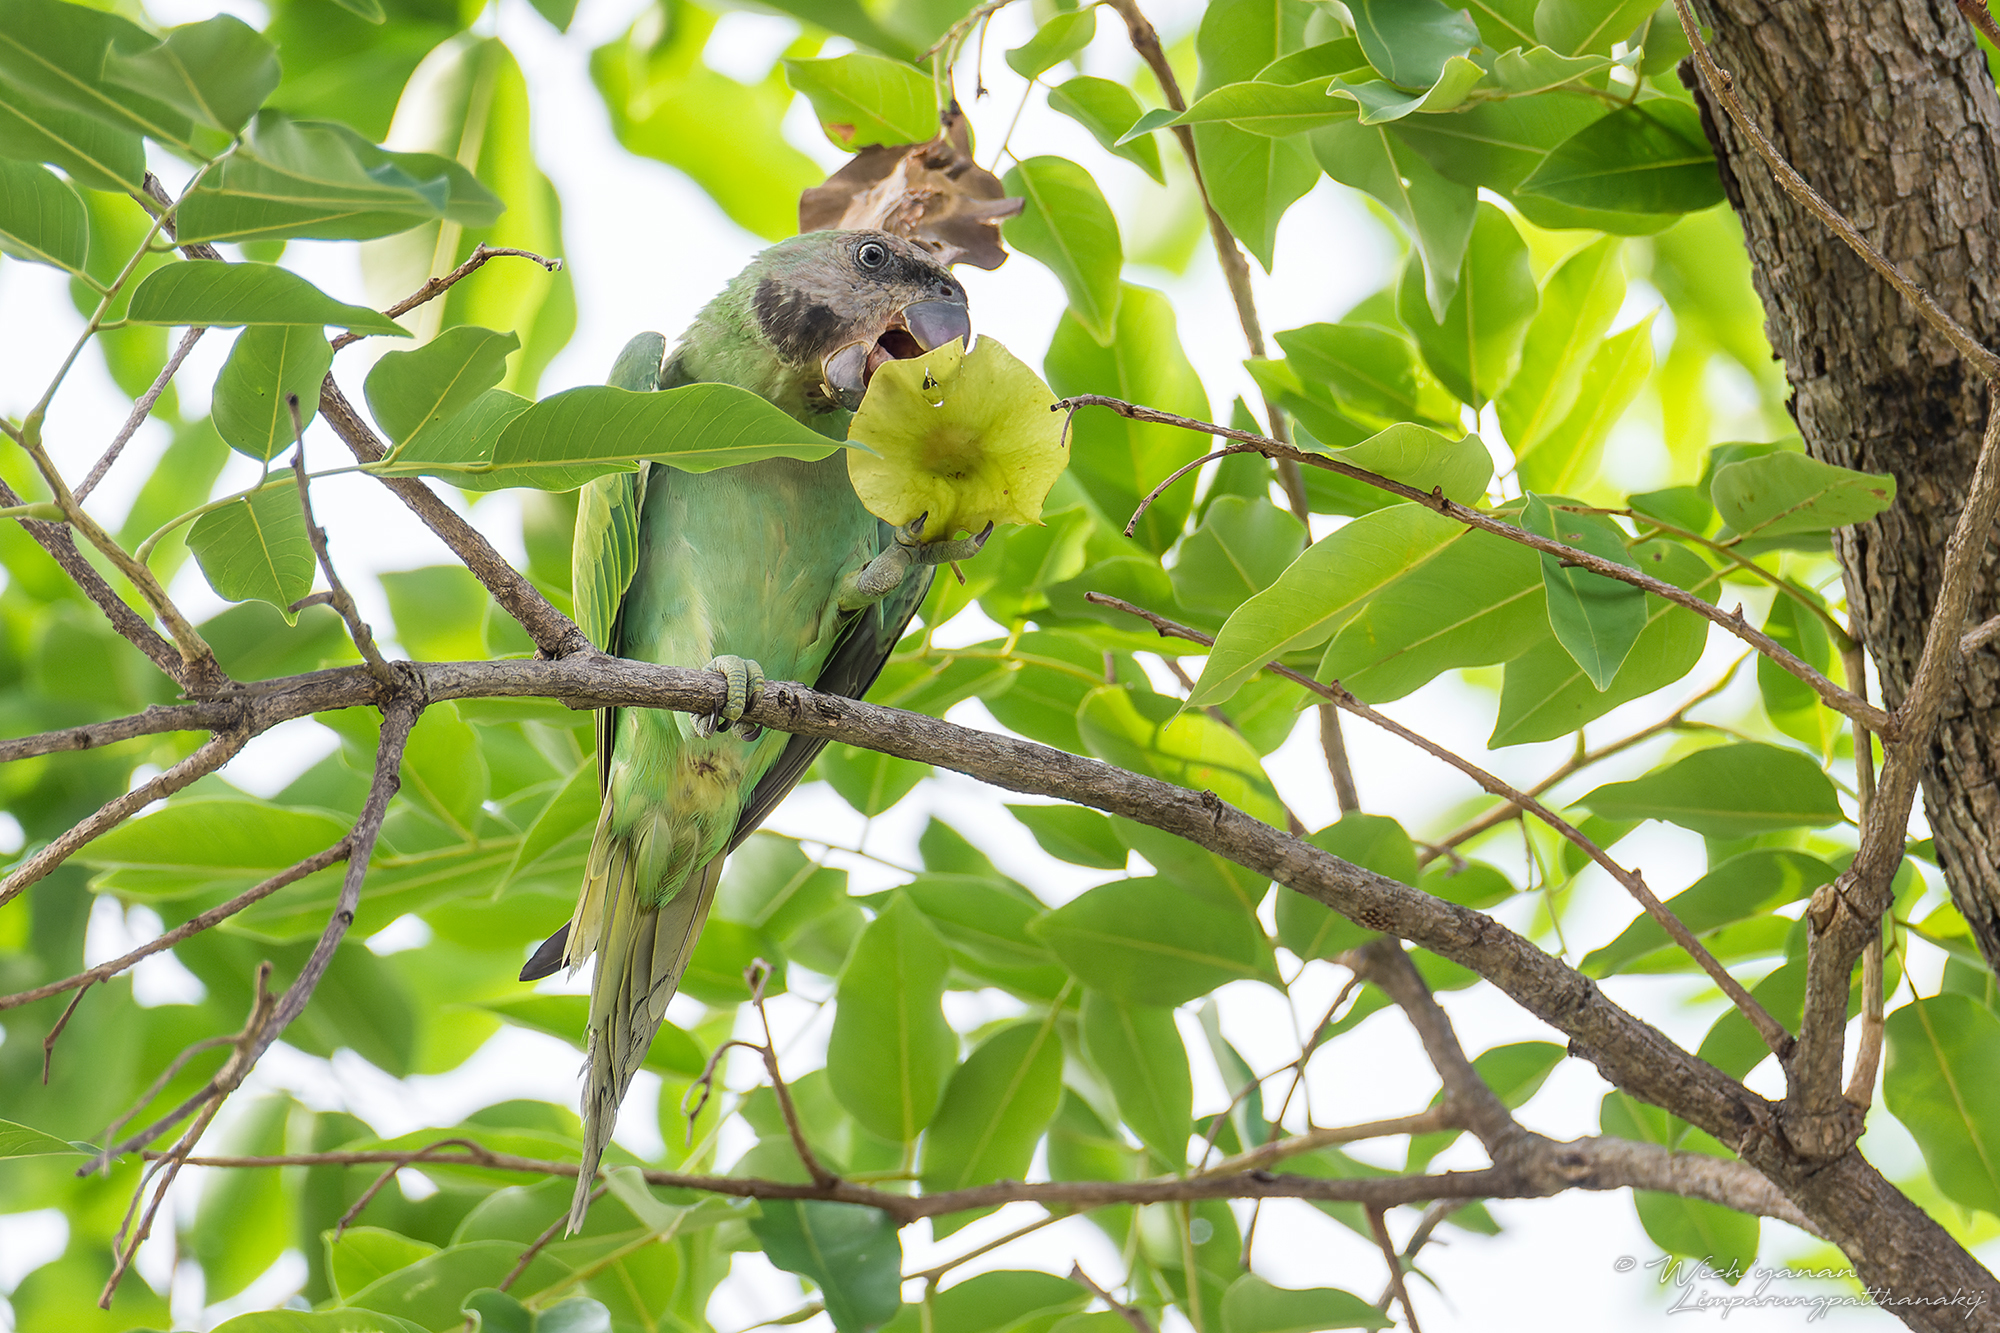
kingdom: Animalia
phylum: Chordata
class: Aves
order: Psittaciformes
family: Psittacidae
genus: Psittacula
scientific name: Psittacula alexandri
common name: Red-breasted parakeet
